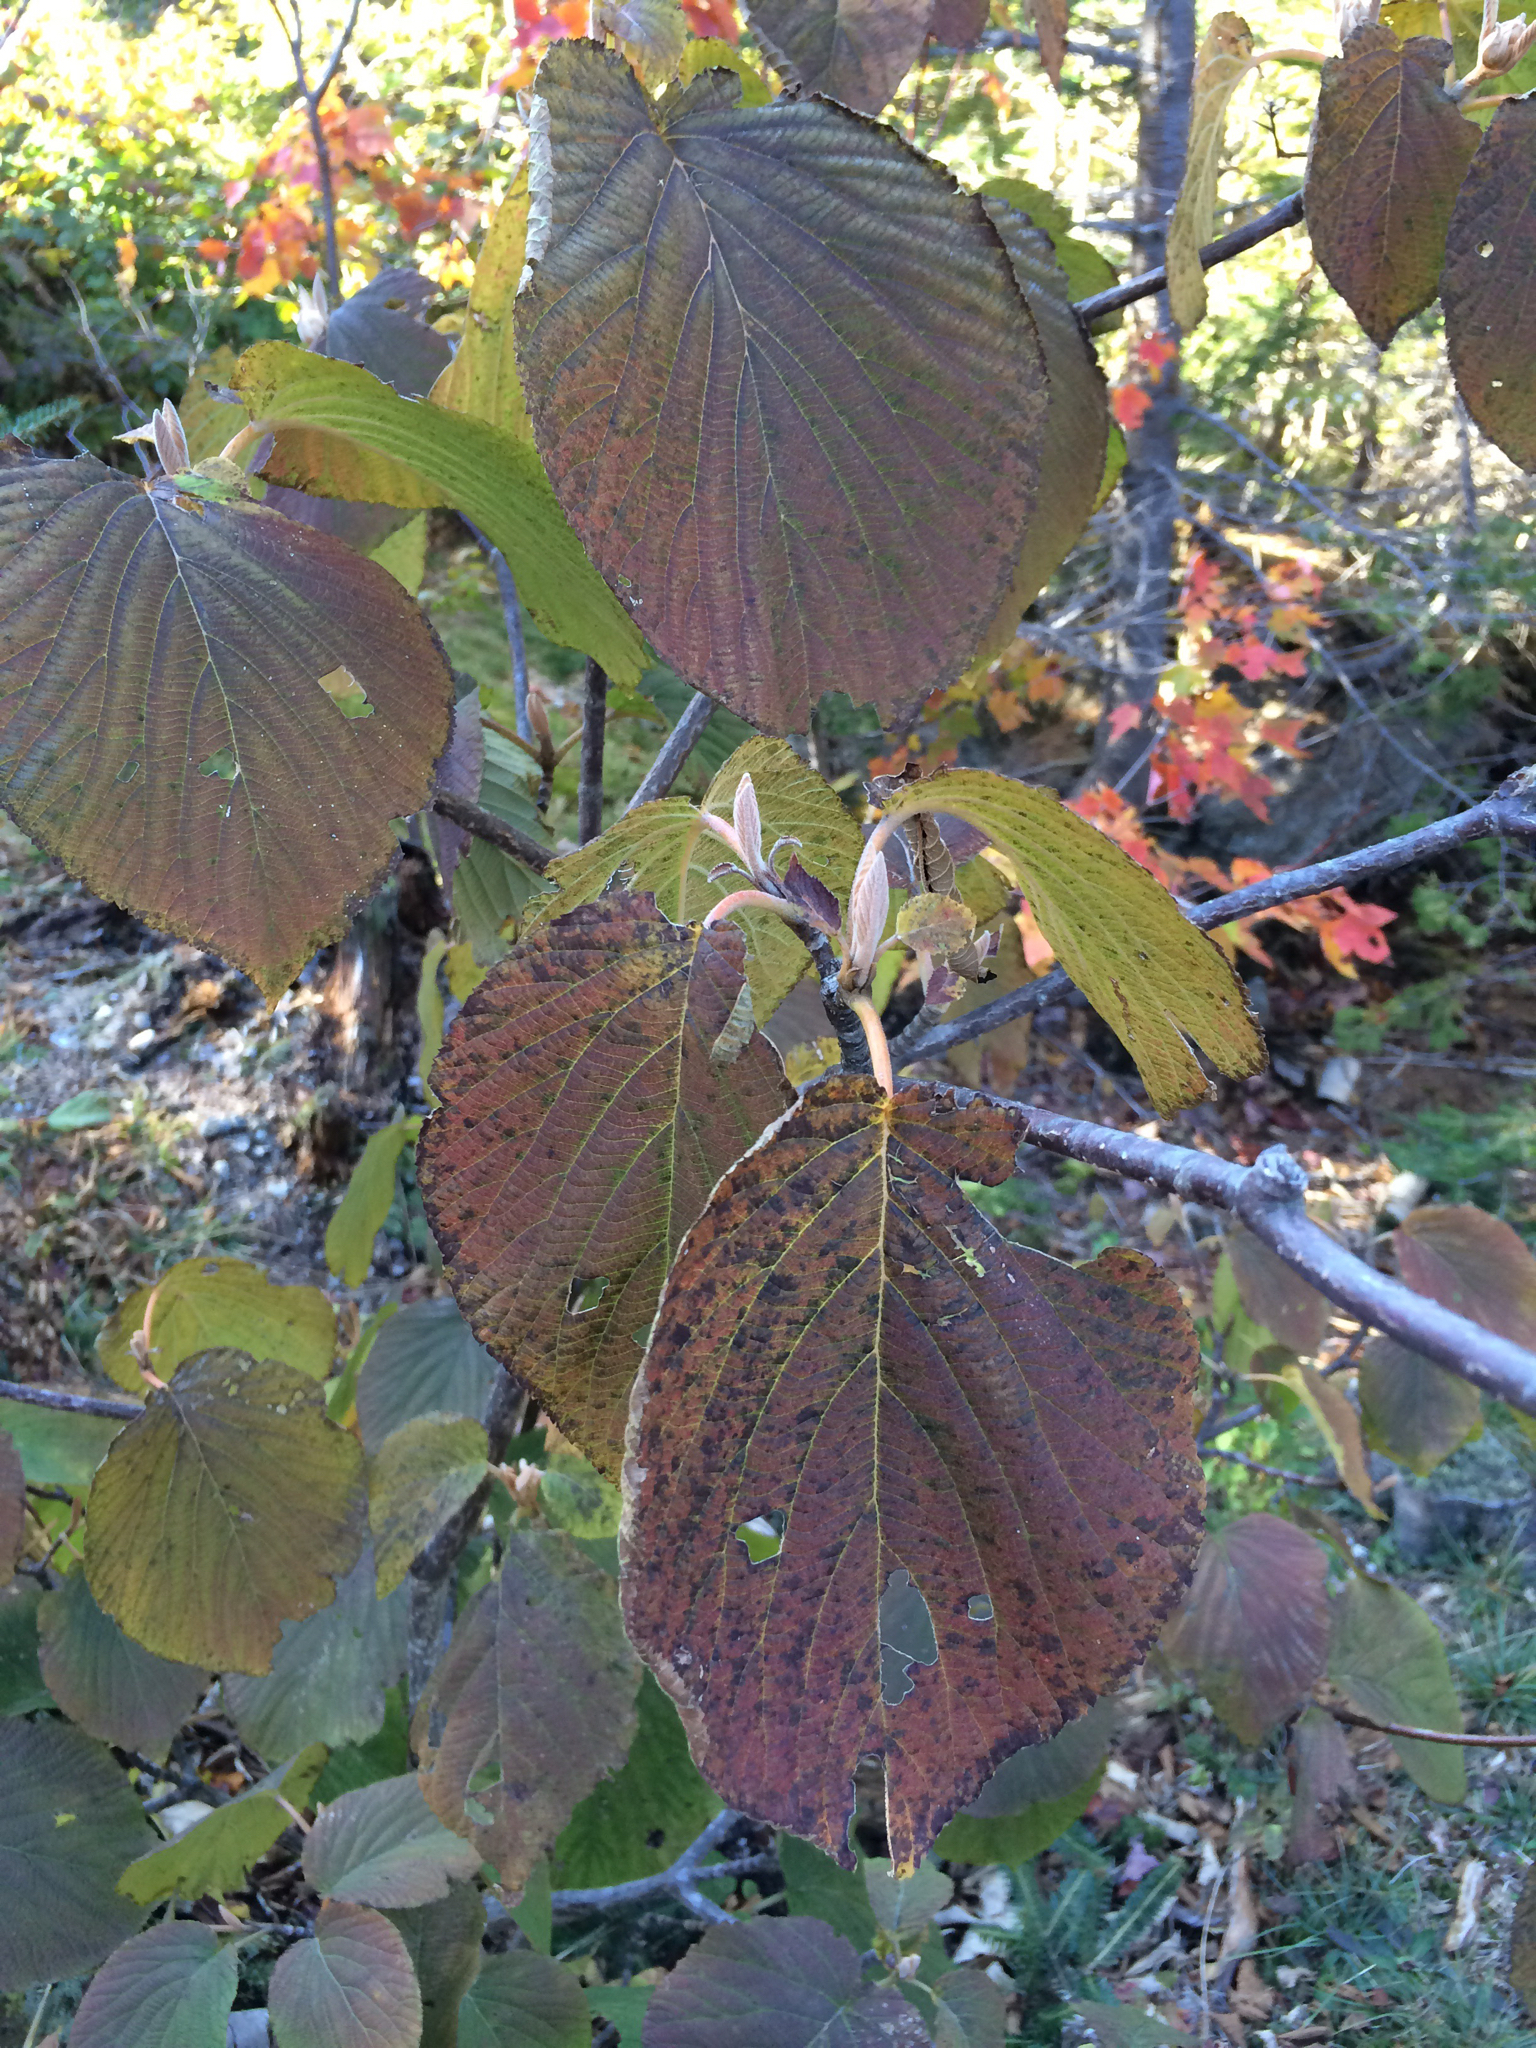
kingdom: Plantae
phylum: Tracheophyta
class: Magnoliopsida
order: Dipsacales
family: Viburnaceae
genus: Viburnum
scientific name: Viburnum lantanoides
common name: Hobblebush
